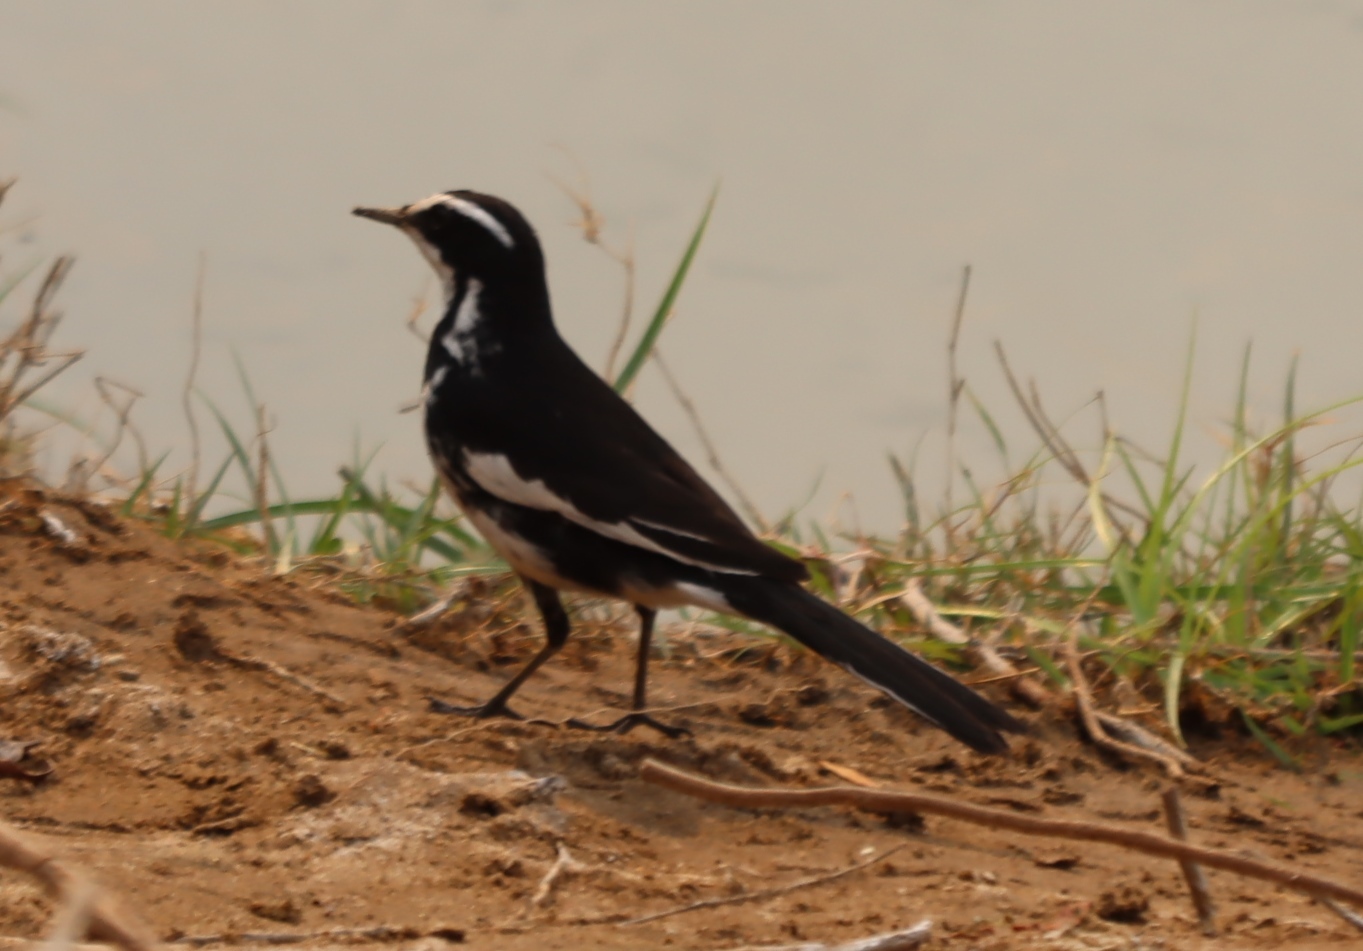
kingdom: Animalia
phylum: Chordata
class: Aves
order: Passeriformes
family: Motacillidae
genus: Motacilla
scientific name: Motacilla aguimp
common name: African pied wagtail
